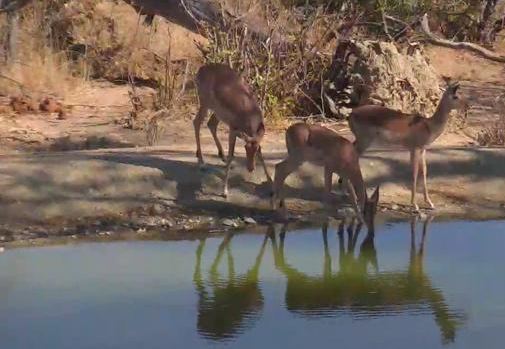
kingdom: Animalia
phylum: Chordata
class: Mammalia
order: Artiodactyla
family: Bovidae
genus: Aepyceros
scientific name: Aepyceros melampus
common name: Impala
